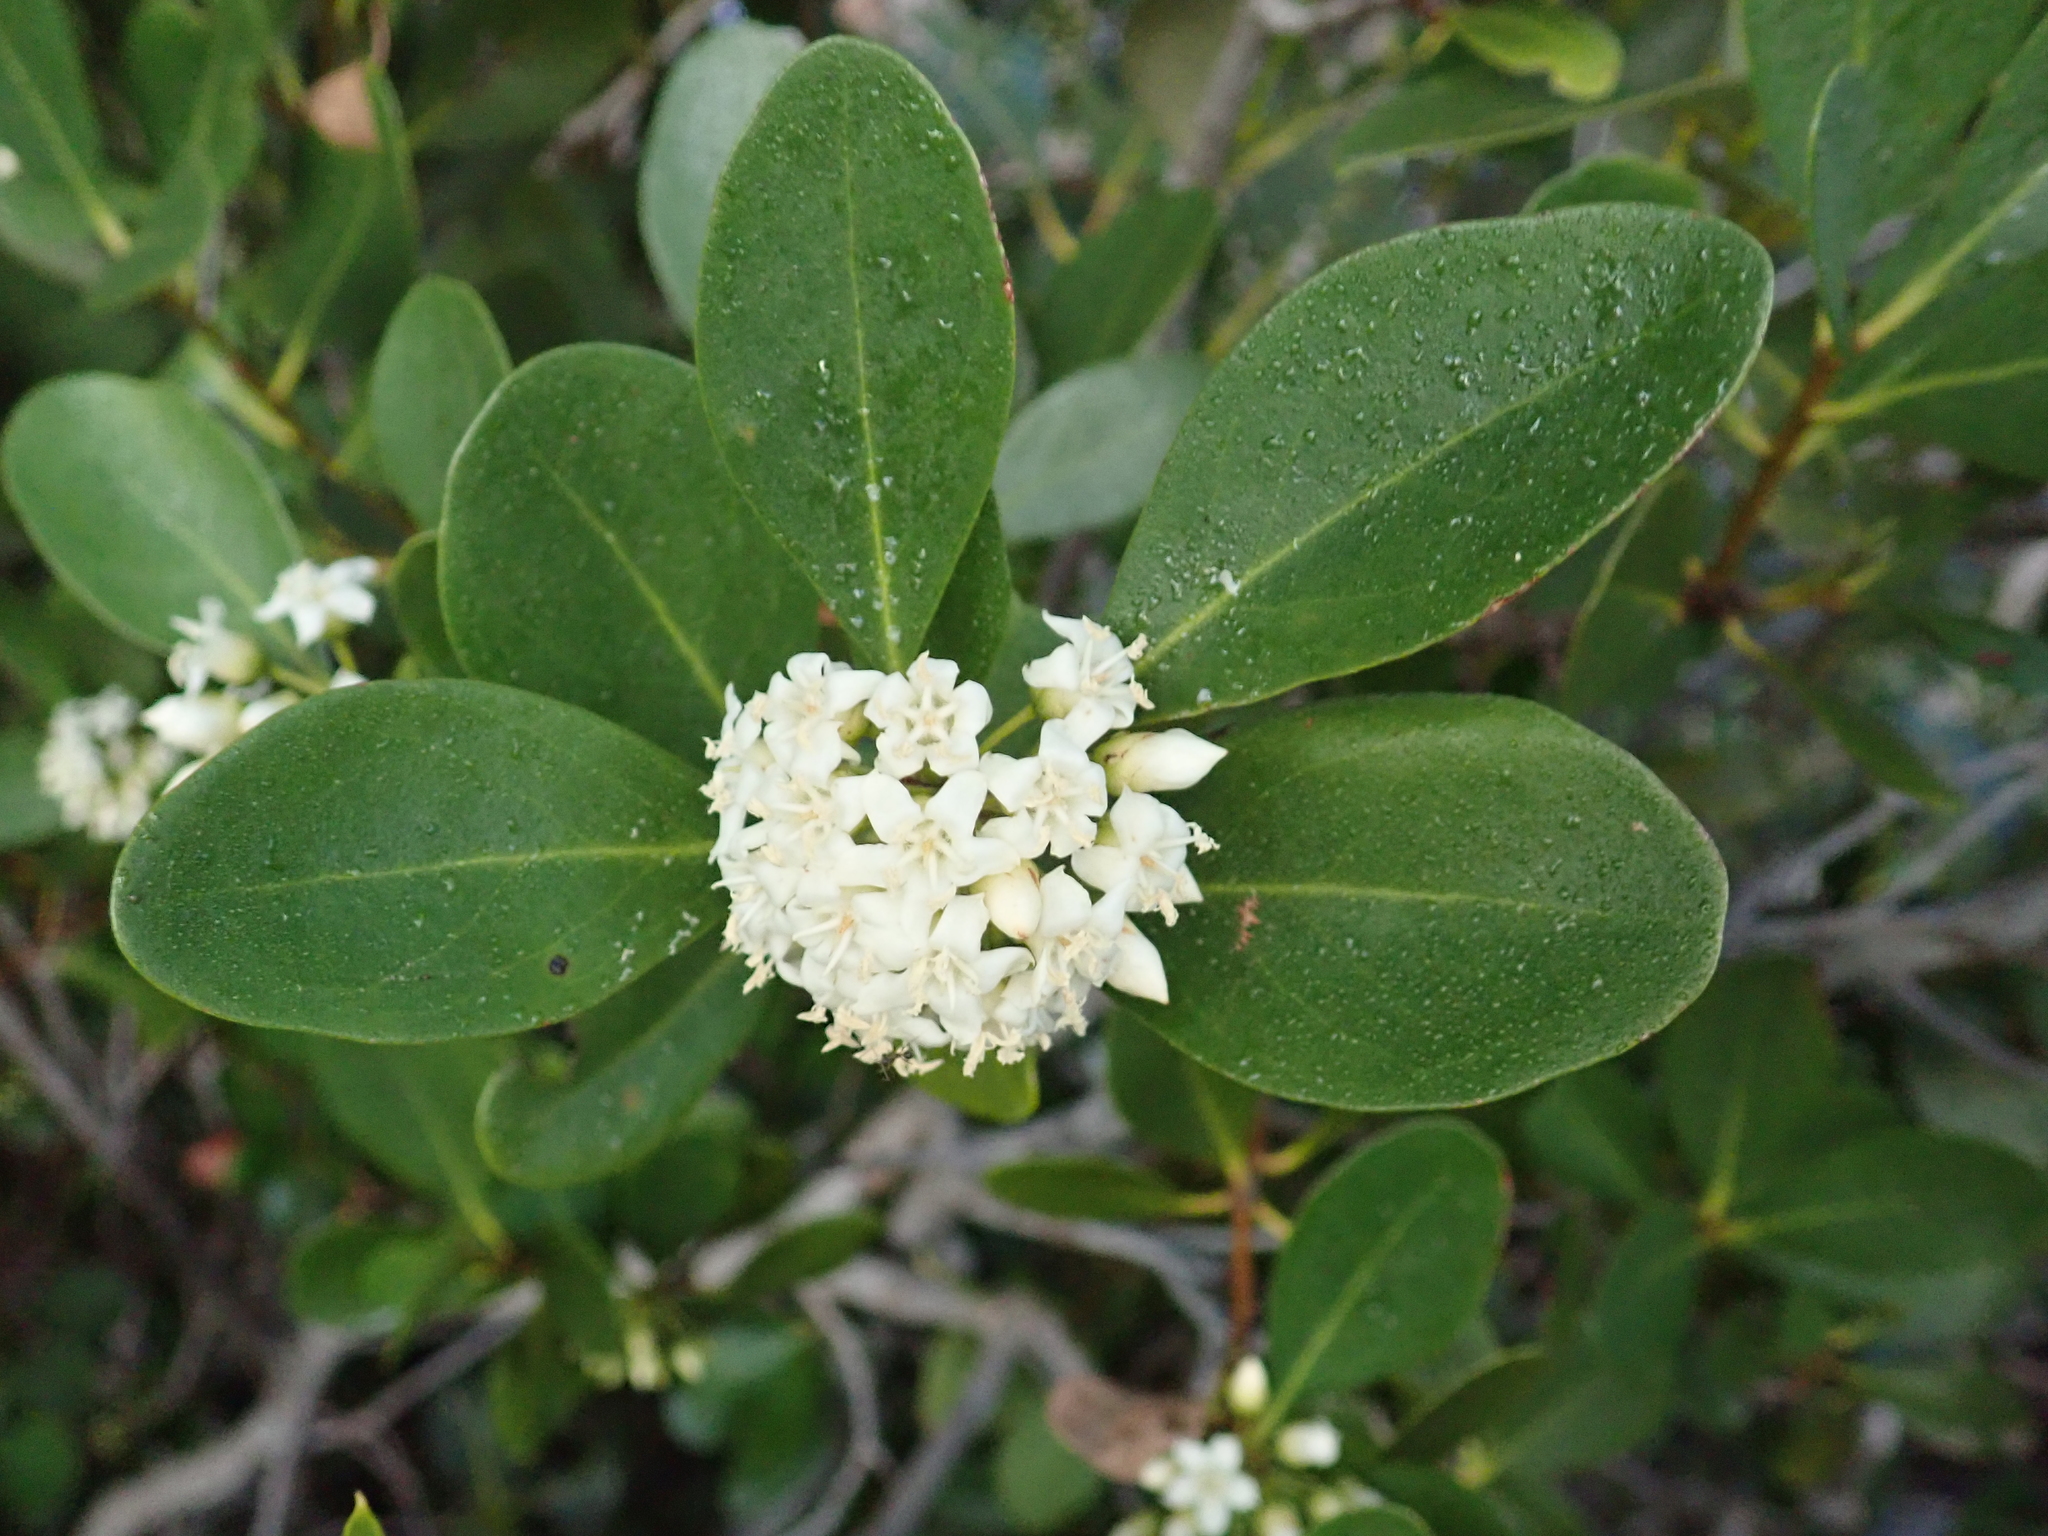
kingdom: Plantae
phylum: Tracheophyta
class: Magnoliopsida
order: Ericales
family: Primulaceae
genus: Aegiceras
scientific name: Aegiceras corniculatum
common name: River mangrove
